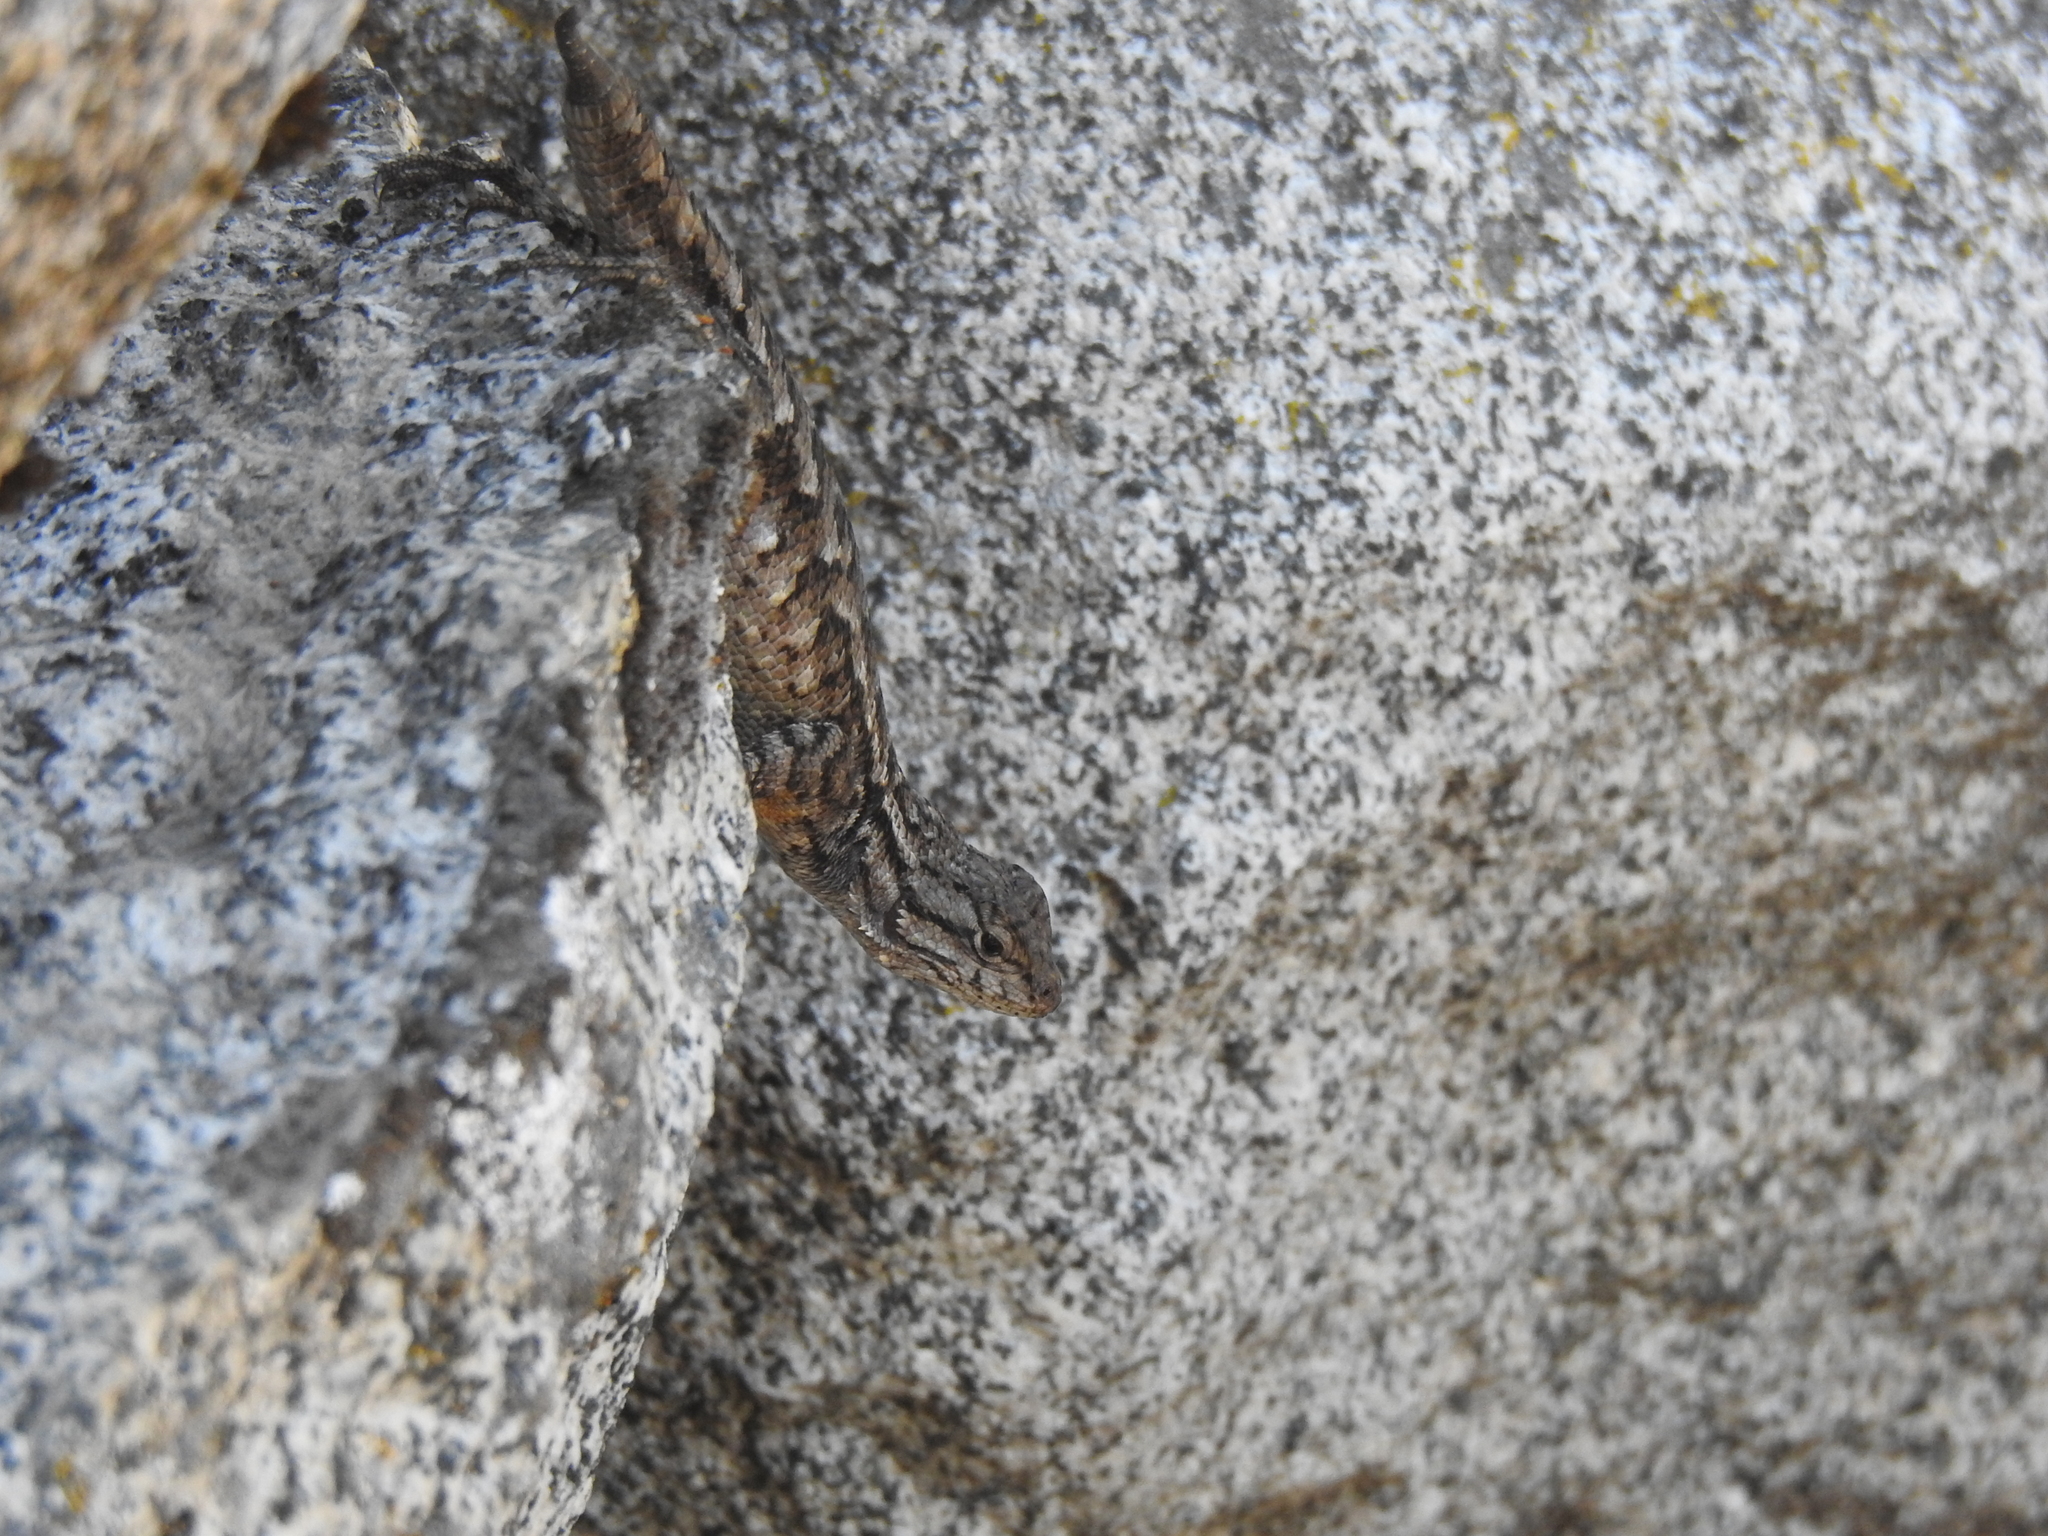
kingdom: Animalia
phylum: Chordata
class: Squamata
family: Phrynosomatidae
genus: Sceloporus
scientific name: Sceloporus occidentalis
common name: Western fence lizard
